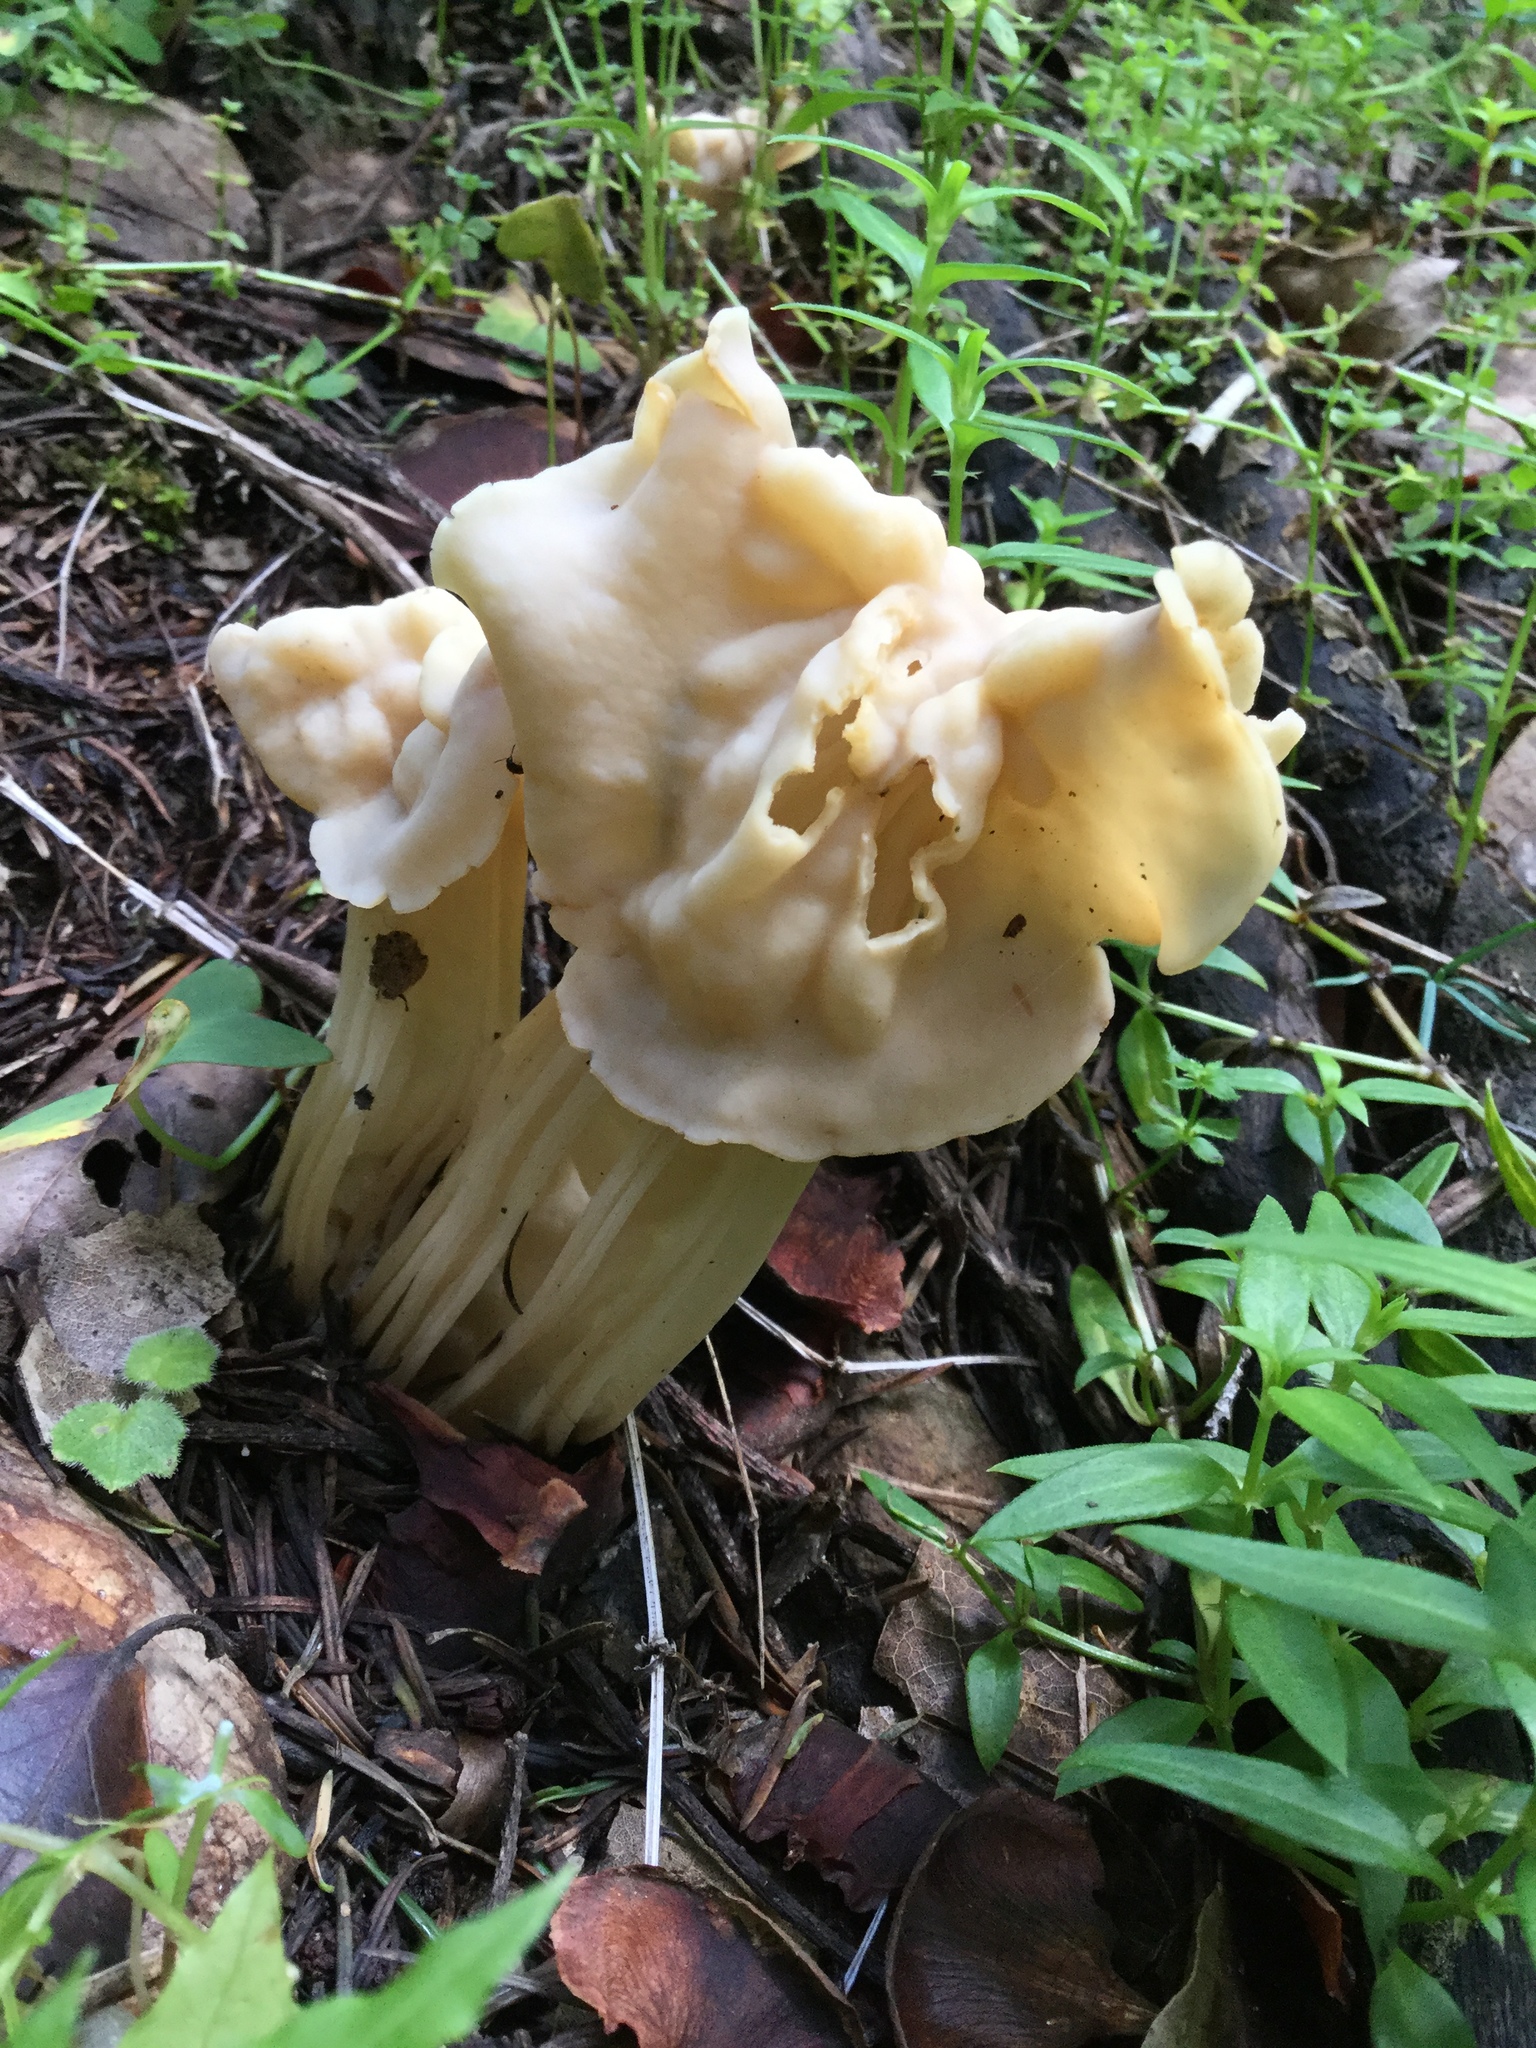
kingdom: Fungi
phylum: Ascomycota
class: Pezizomycetes
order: Pezizales
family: Helvellaceae
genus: Helvella
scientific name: Helvella crispa
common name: White saddle
